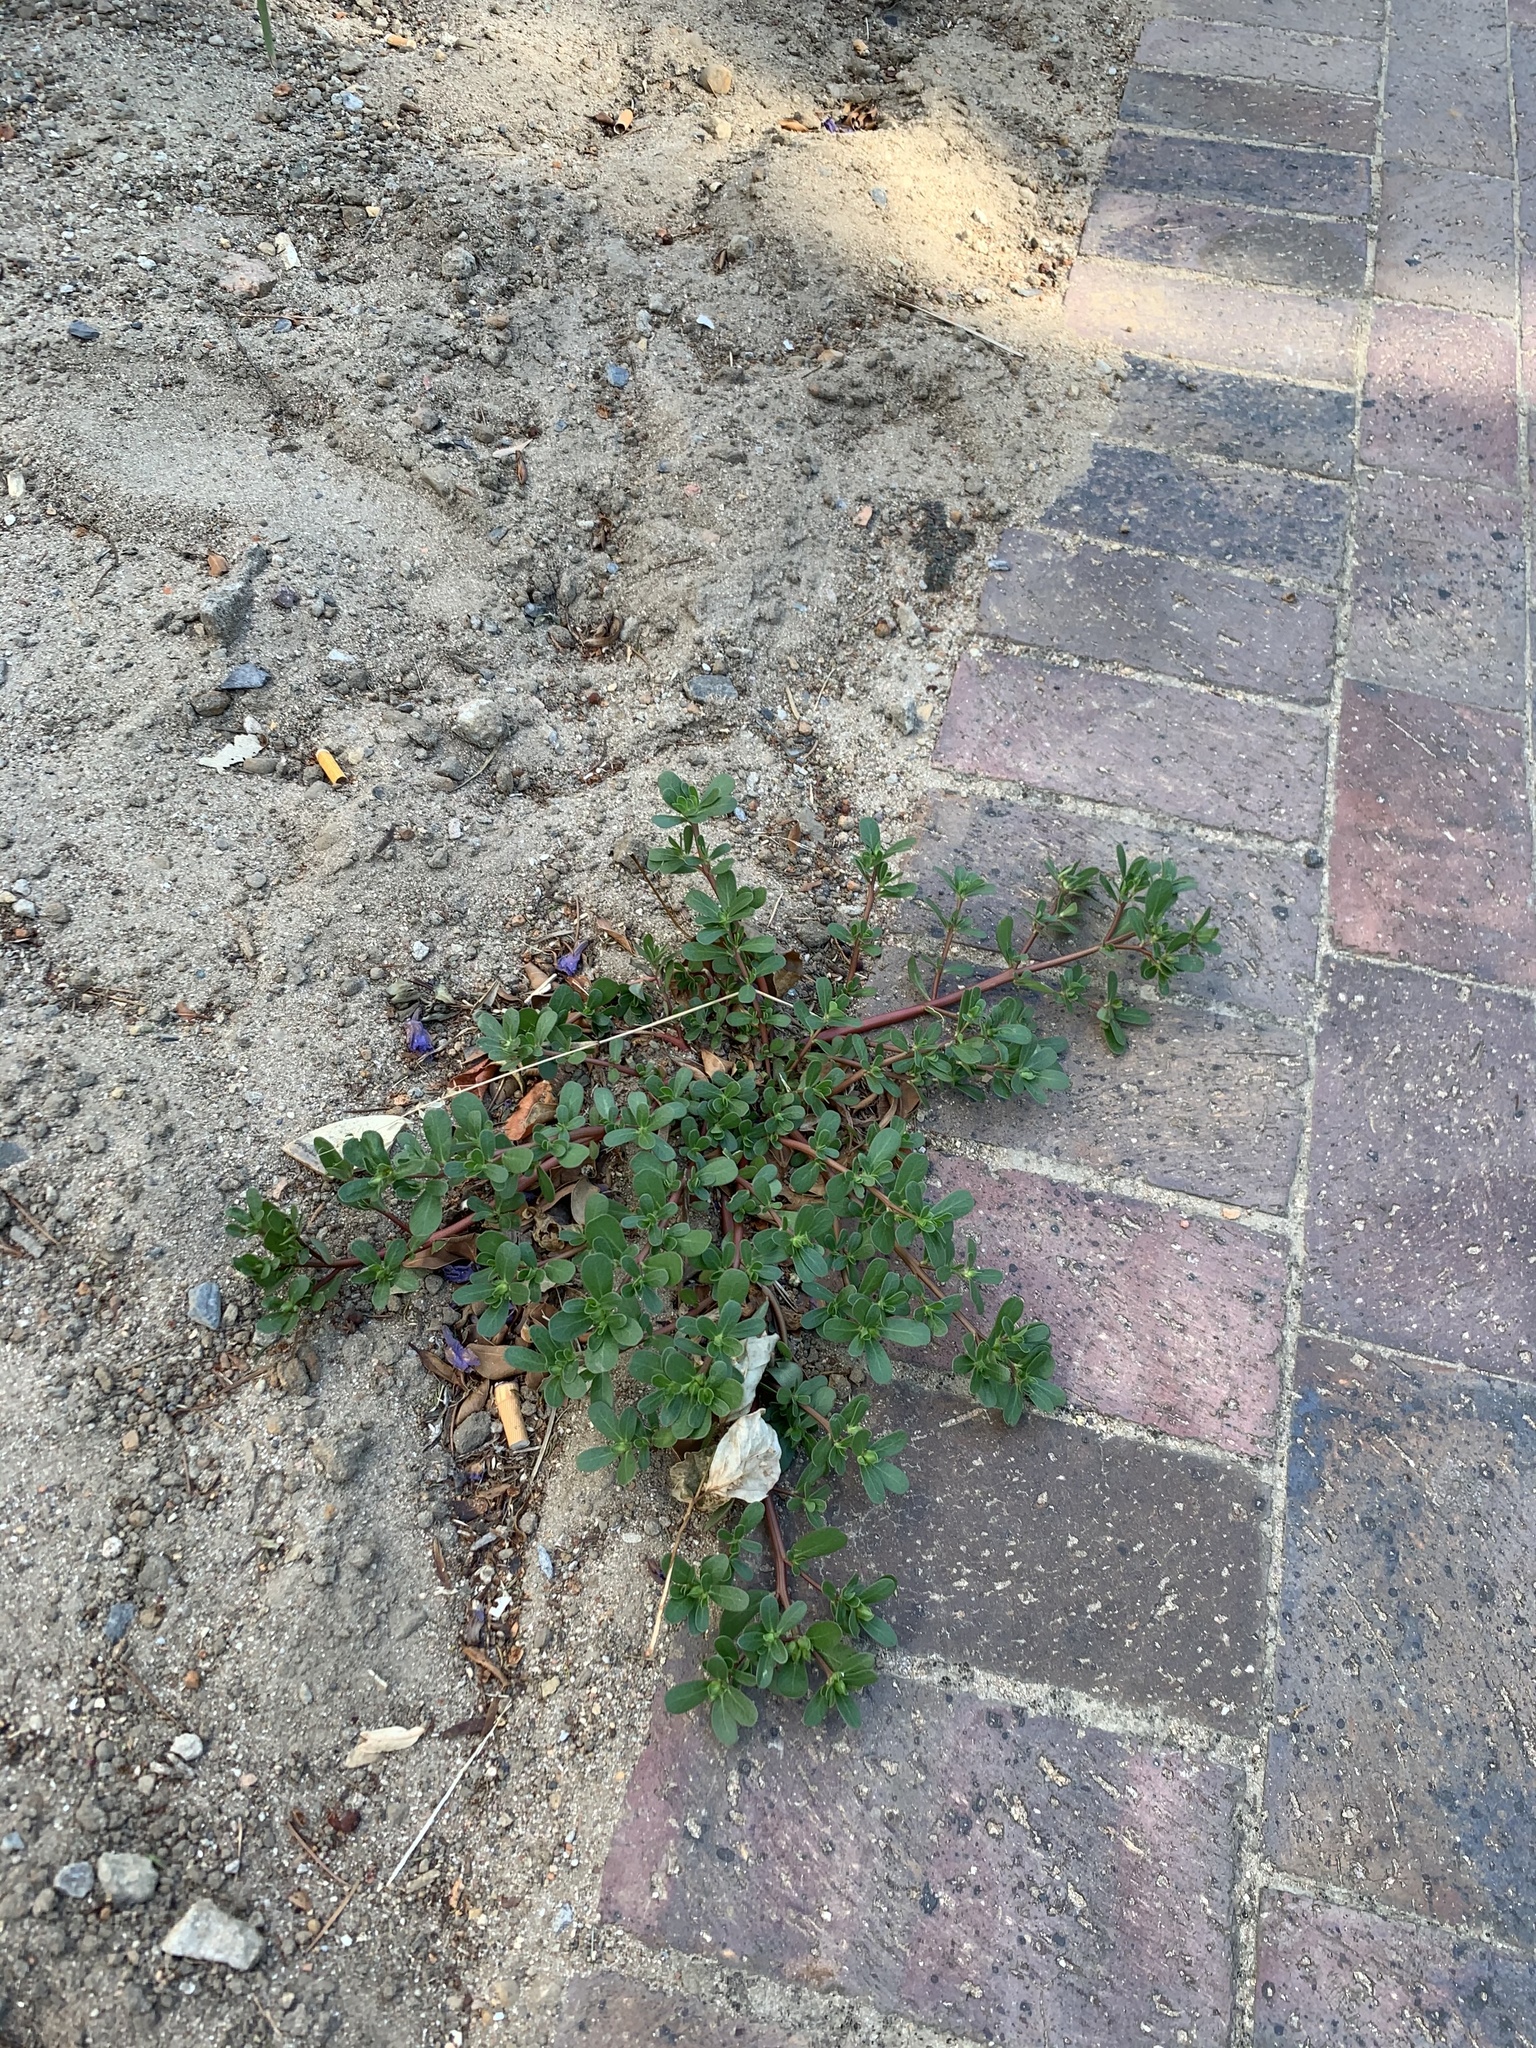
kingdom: Plantae
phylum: Tracheophyta
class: Magnoliopsida
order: Caryophyllales
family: Portulacaceae
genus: Portulaca
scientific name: Portulaca oleracea
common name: Common purslane
